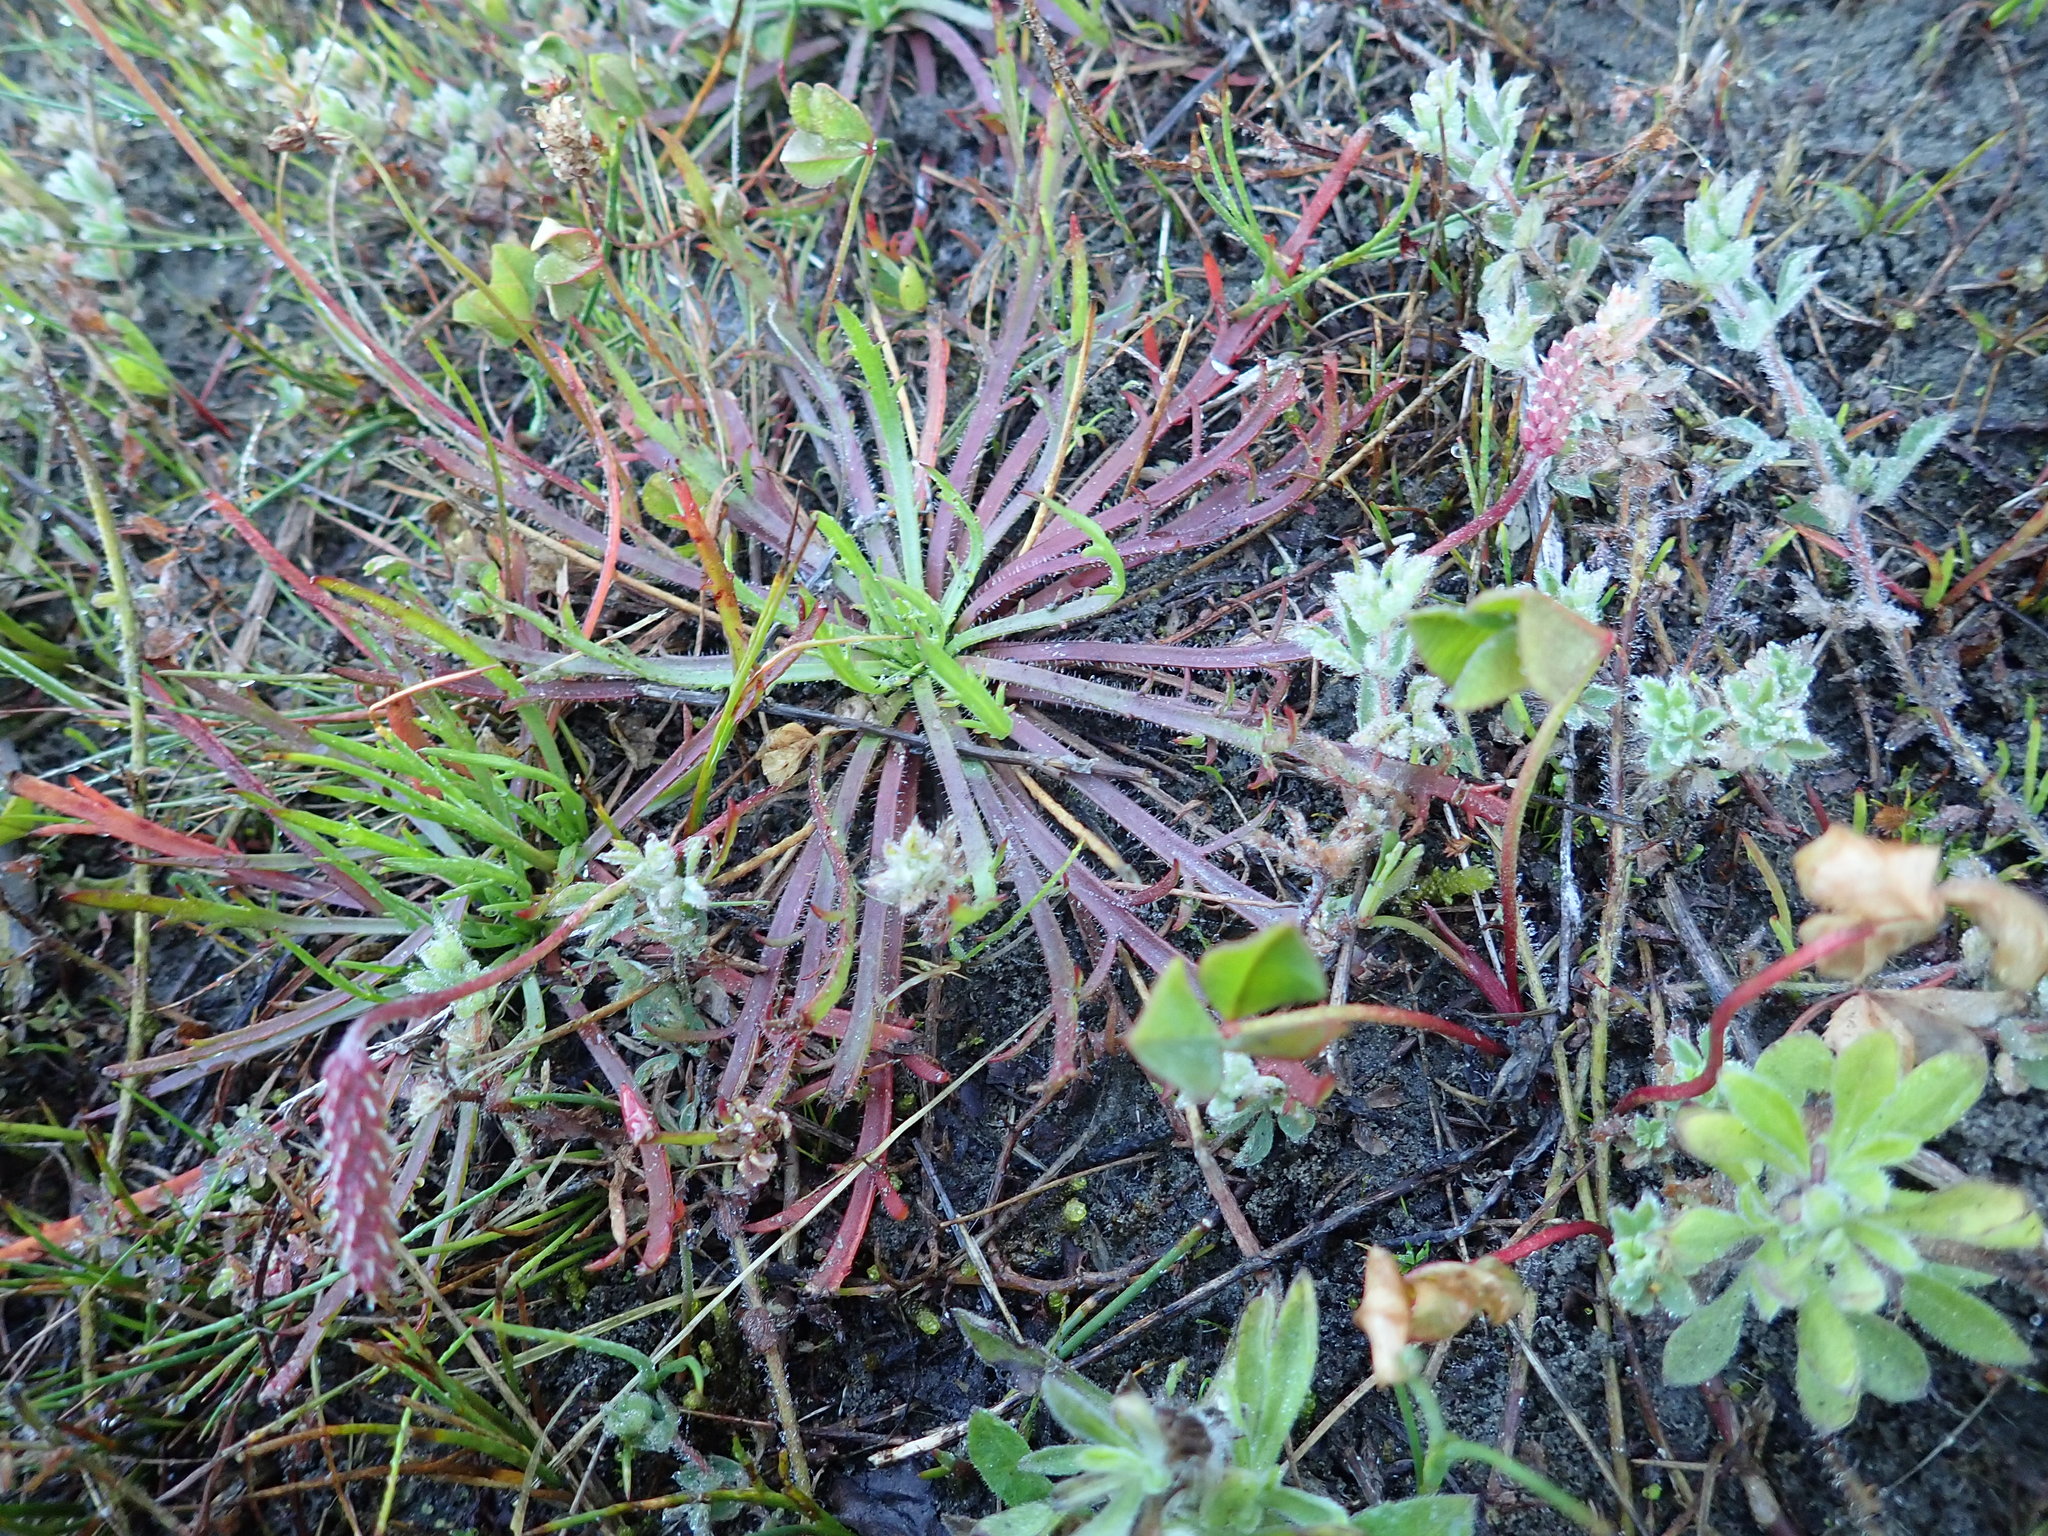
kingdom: Plantae
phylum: Tracheophyta
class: Magnoliopsida
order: Lamiales
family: Plantaginaceae
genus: Plantago
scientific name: Plantago coronopus
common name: Buck's-horn plantain
